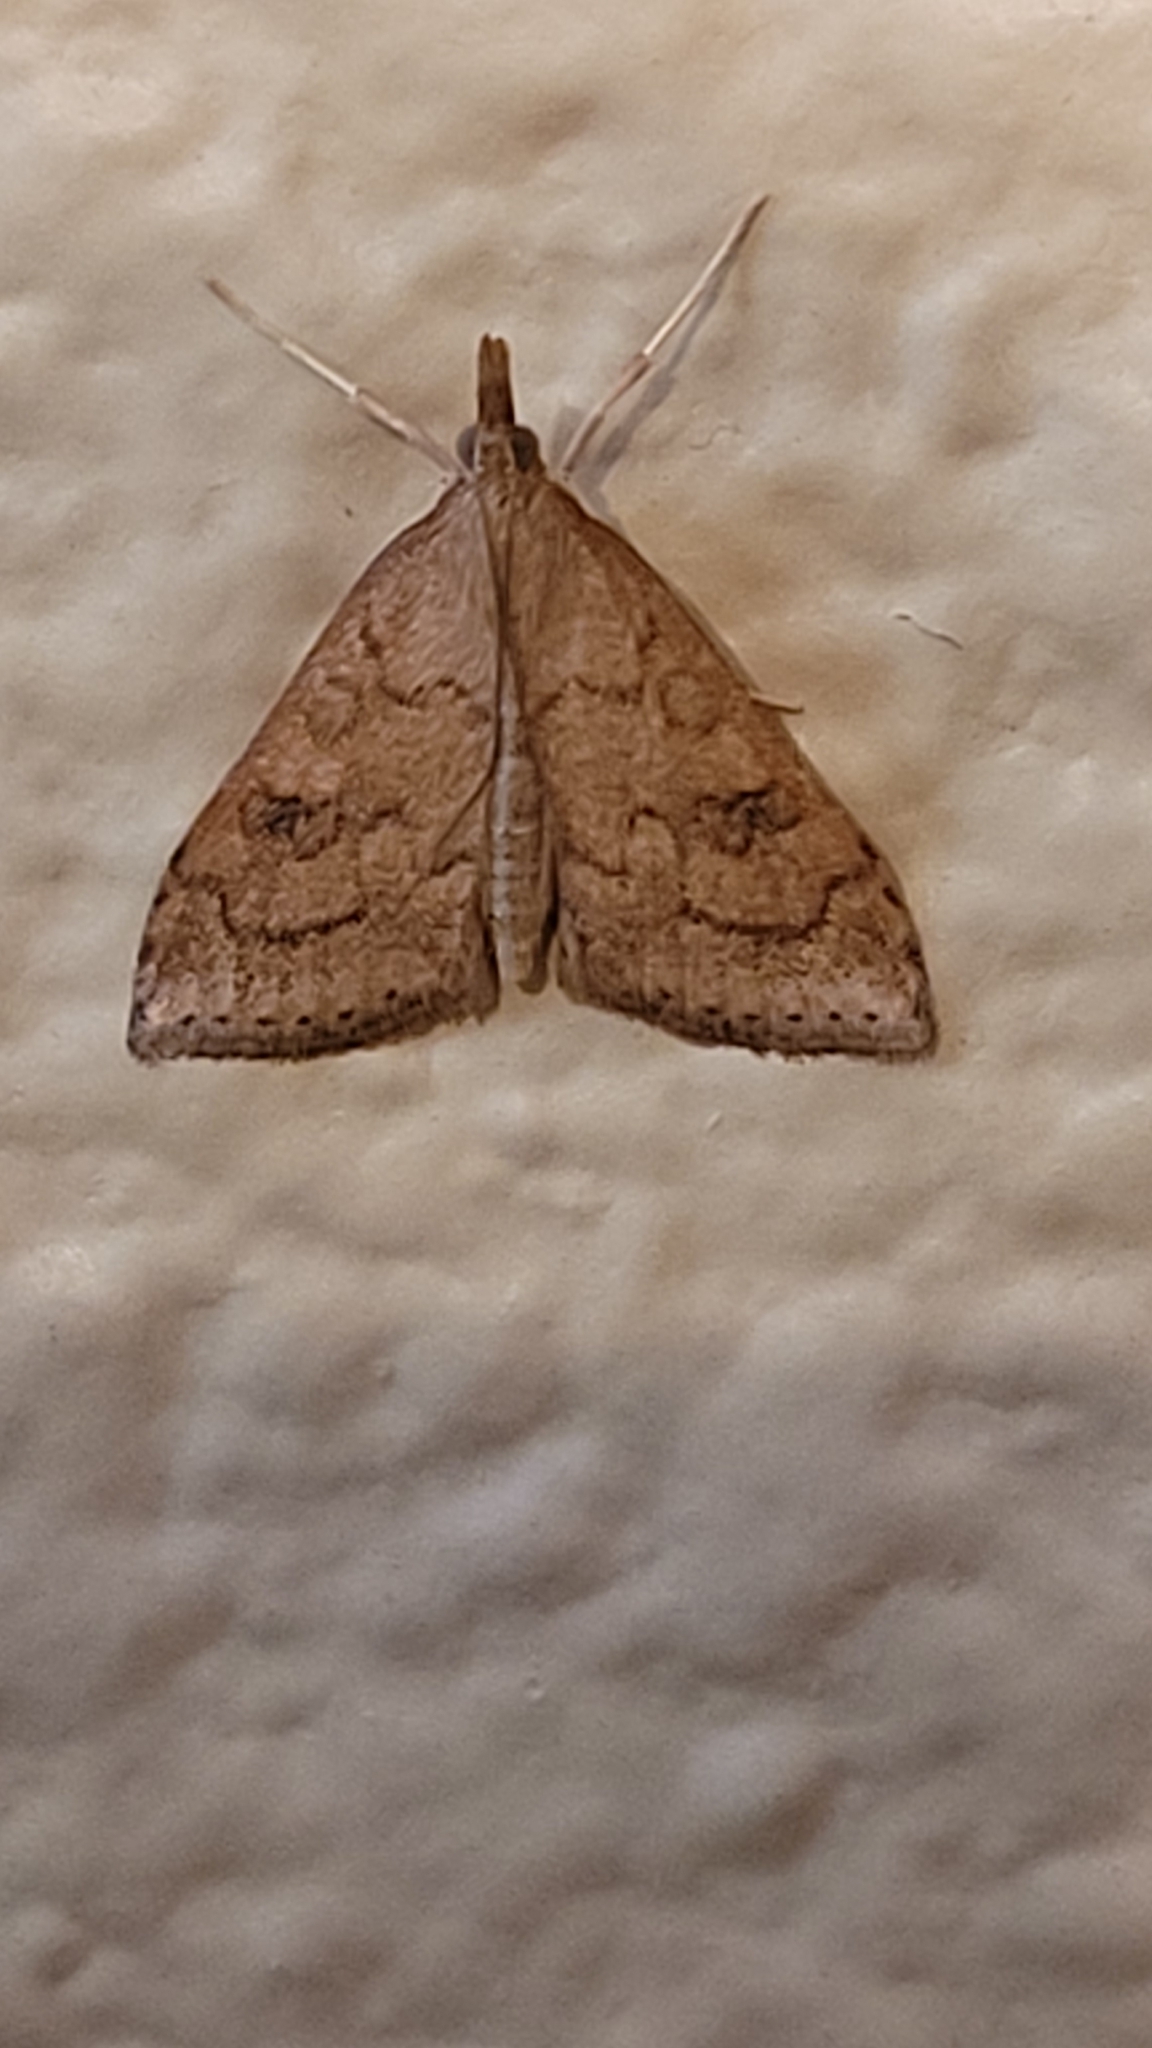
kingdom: Animalia
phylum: Arthropoda
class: Insecta
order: Lepidoptera
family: Crambidae
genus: Udea
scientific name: Udea rubigalis
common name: Celery leaftier moth
